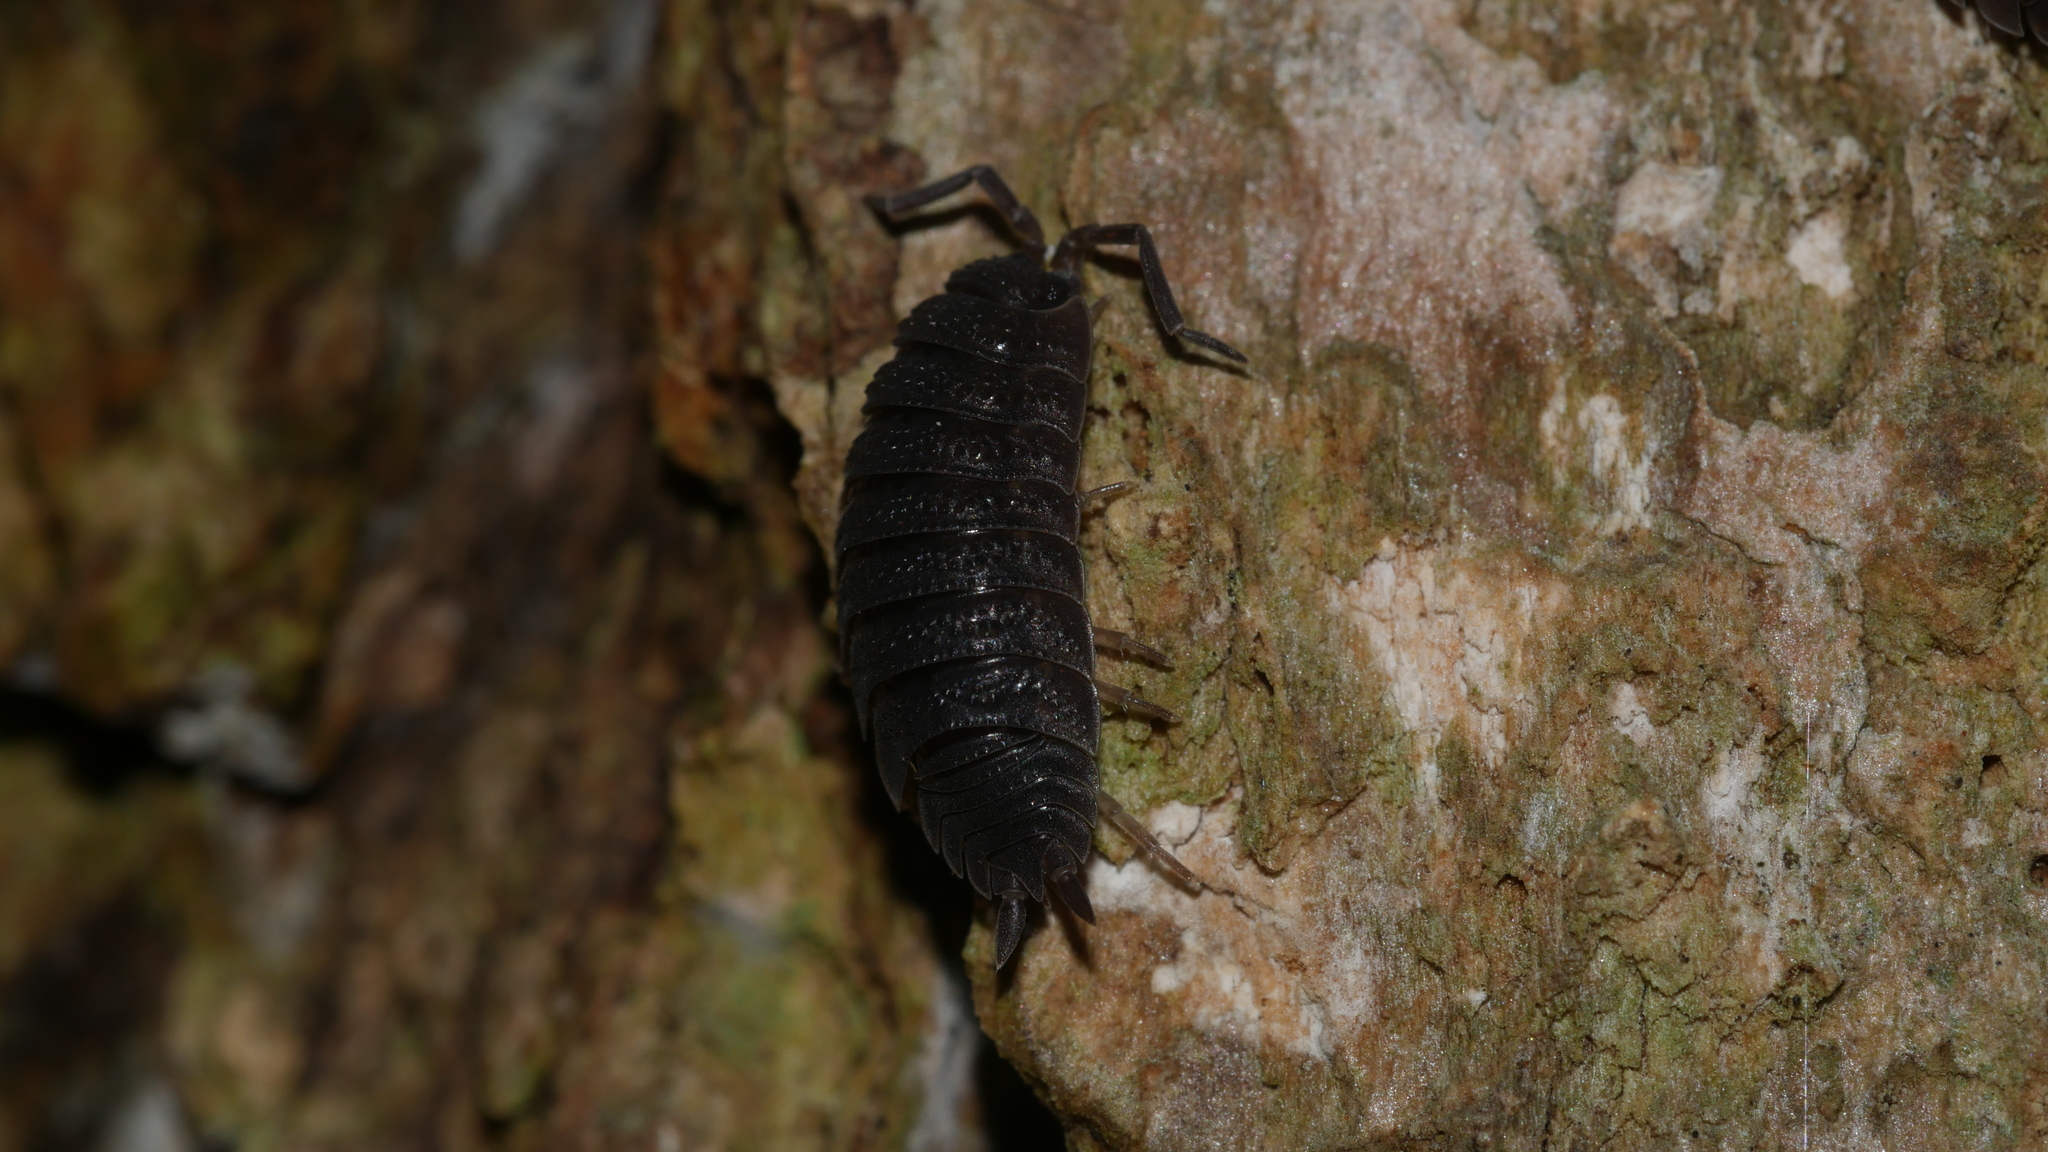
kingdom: Animalia
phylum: Arthropoda
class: Malacostraca
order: Isopoda
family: Porcellionidae
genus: Porcellio
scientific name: Porcellio scaber
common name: Common rough woodlouse
